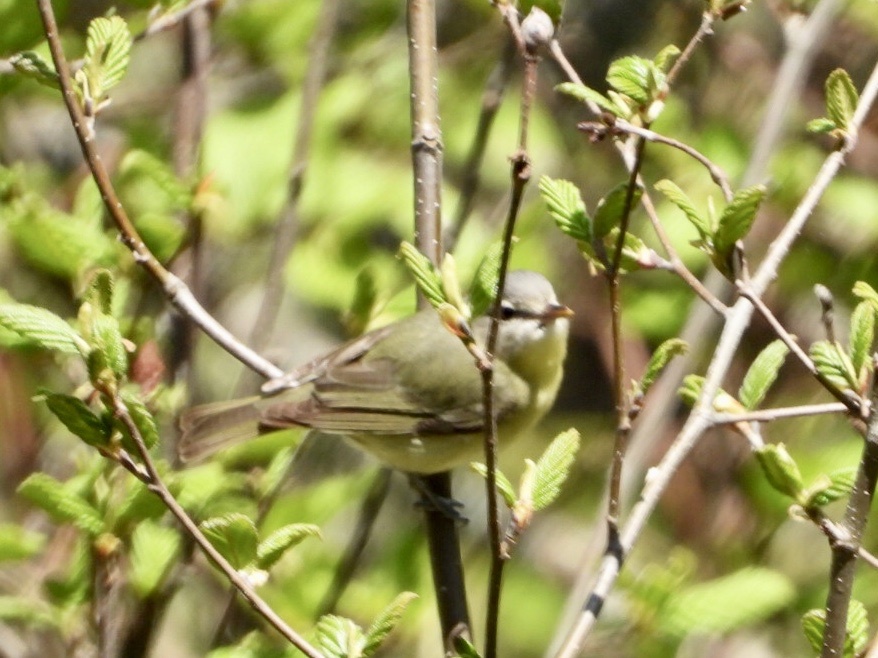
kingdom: Animalia
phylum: Chordata
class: Aves
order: Passeriformes
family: Vireonidae
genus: Vireo
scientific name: Vireo philadelphicus
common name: Philadelphia vireo
